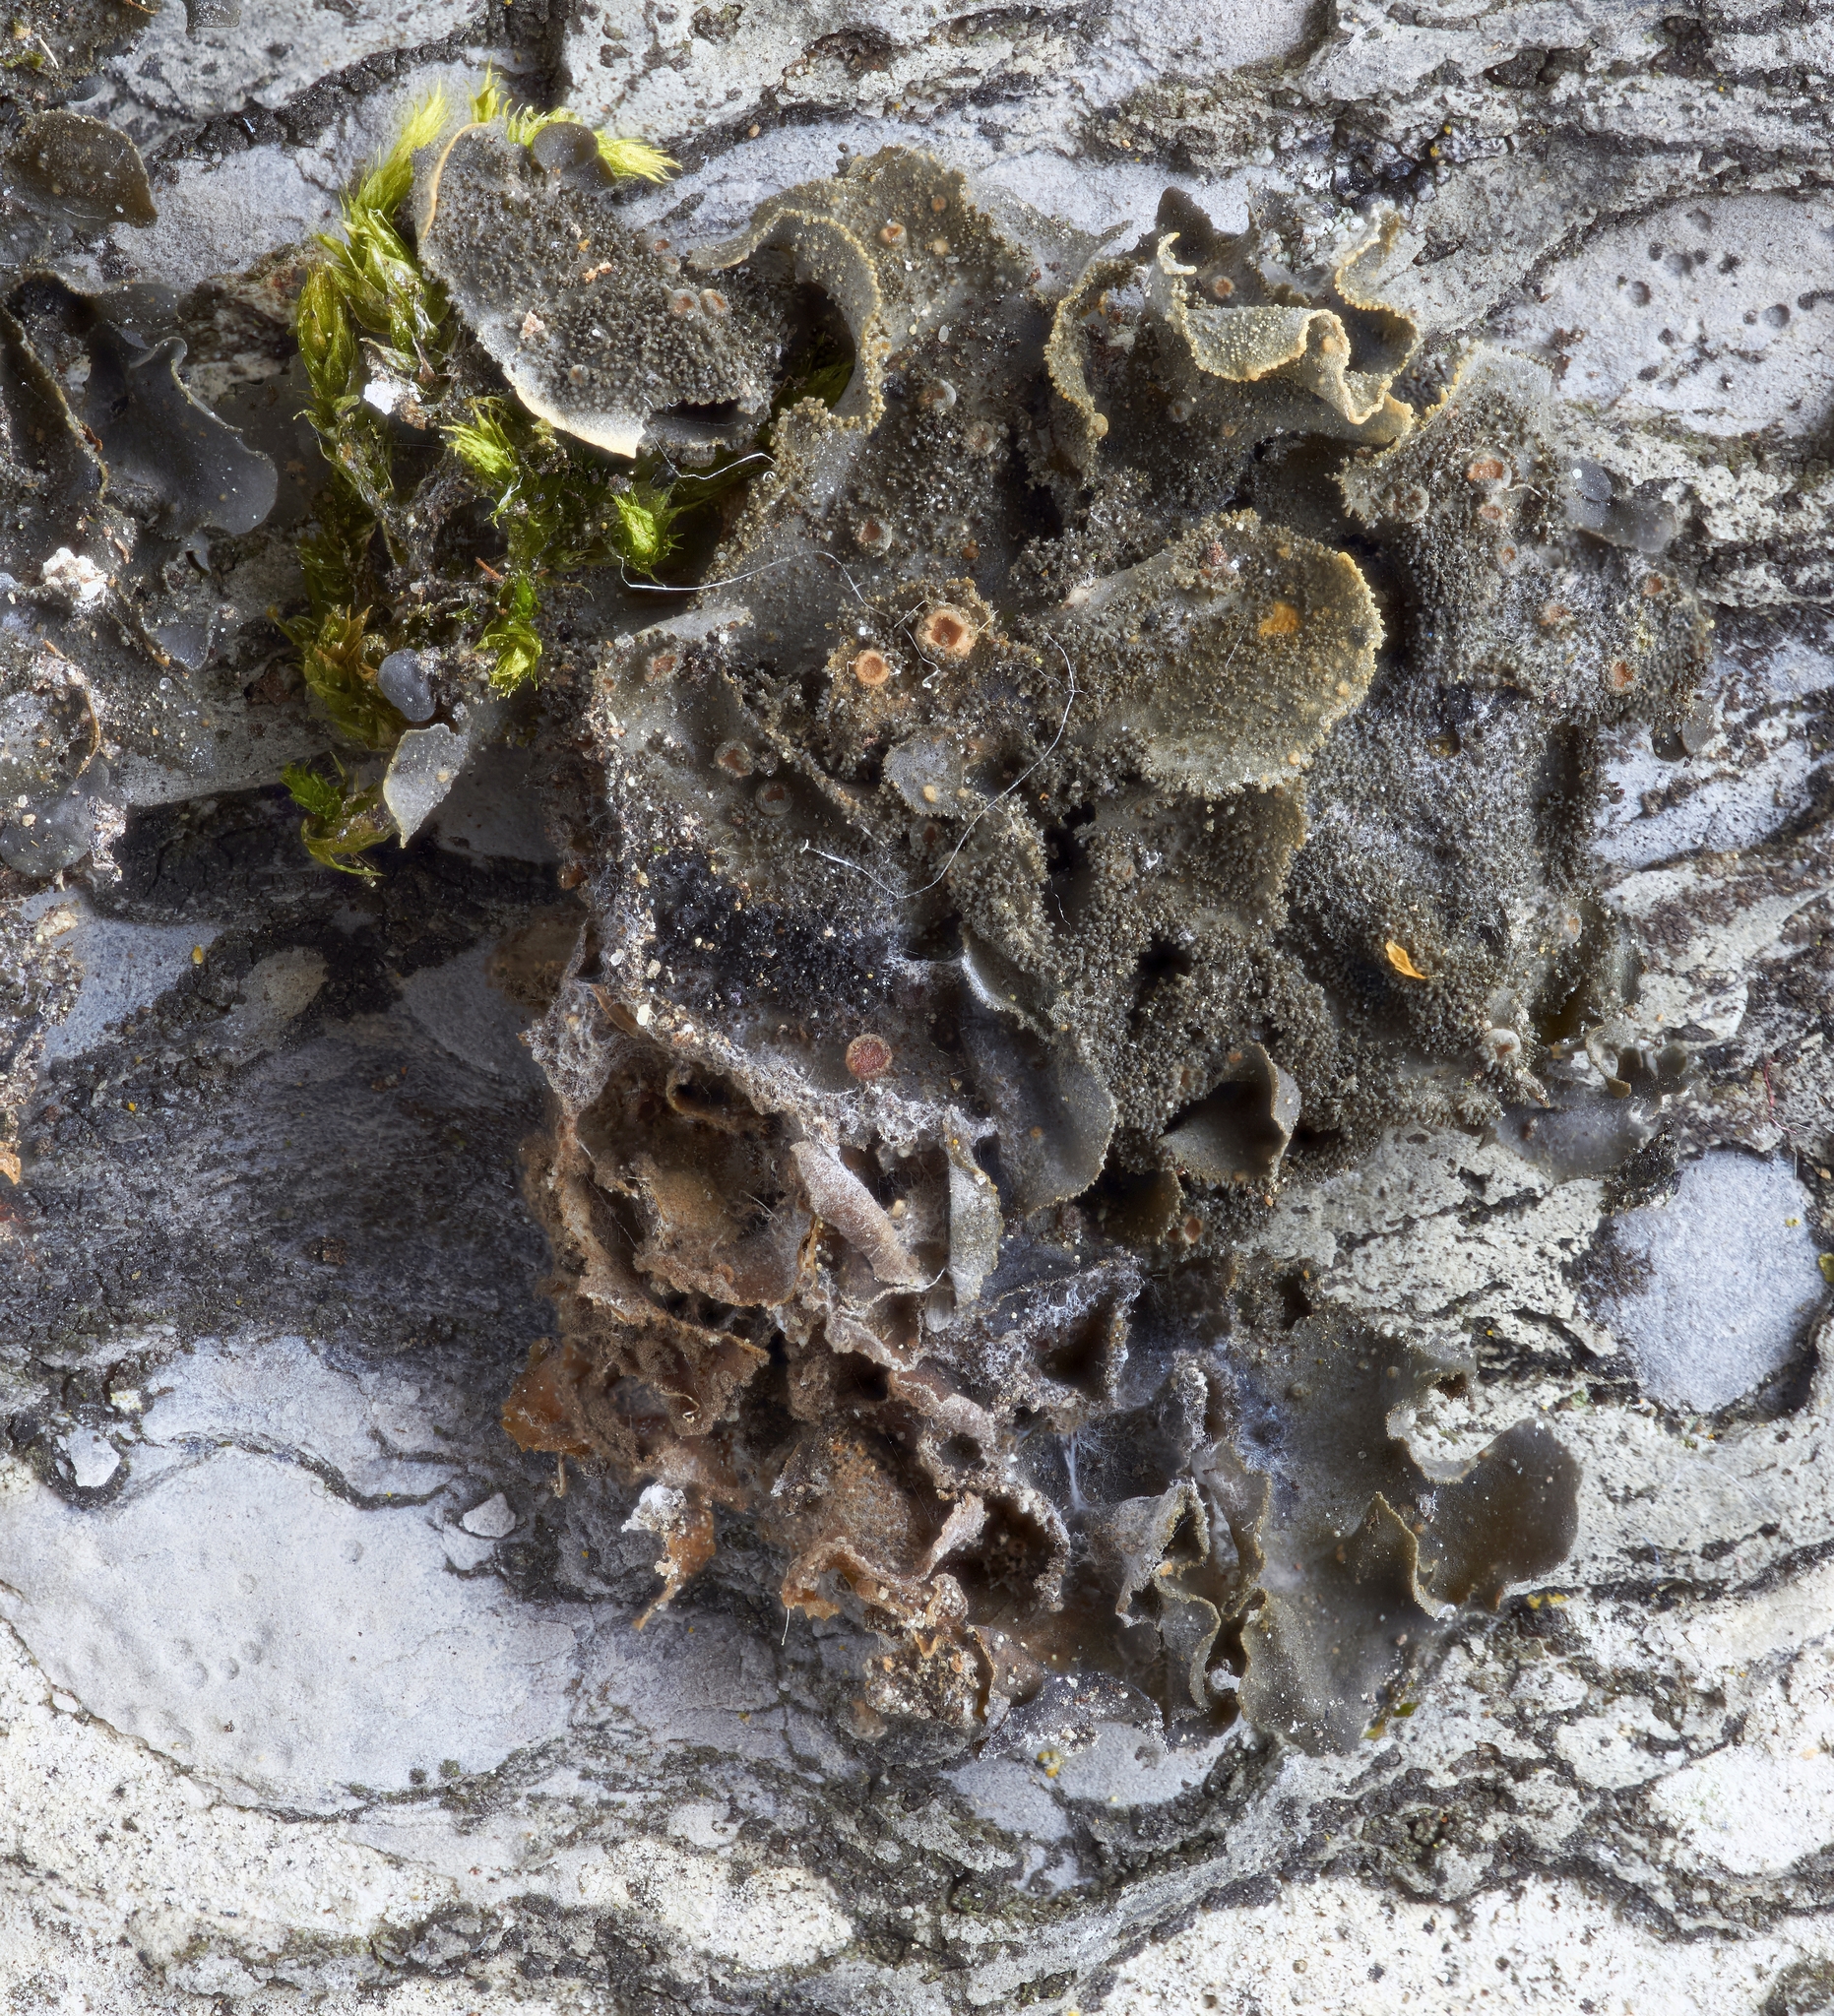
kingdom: Fungi
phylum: Ascomycota
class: Lecanoromycetes
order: Peltigerales
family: Collemataceae
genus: Leptogium
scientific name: Leptogium cyanescens
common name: Blue jellyskin
